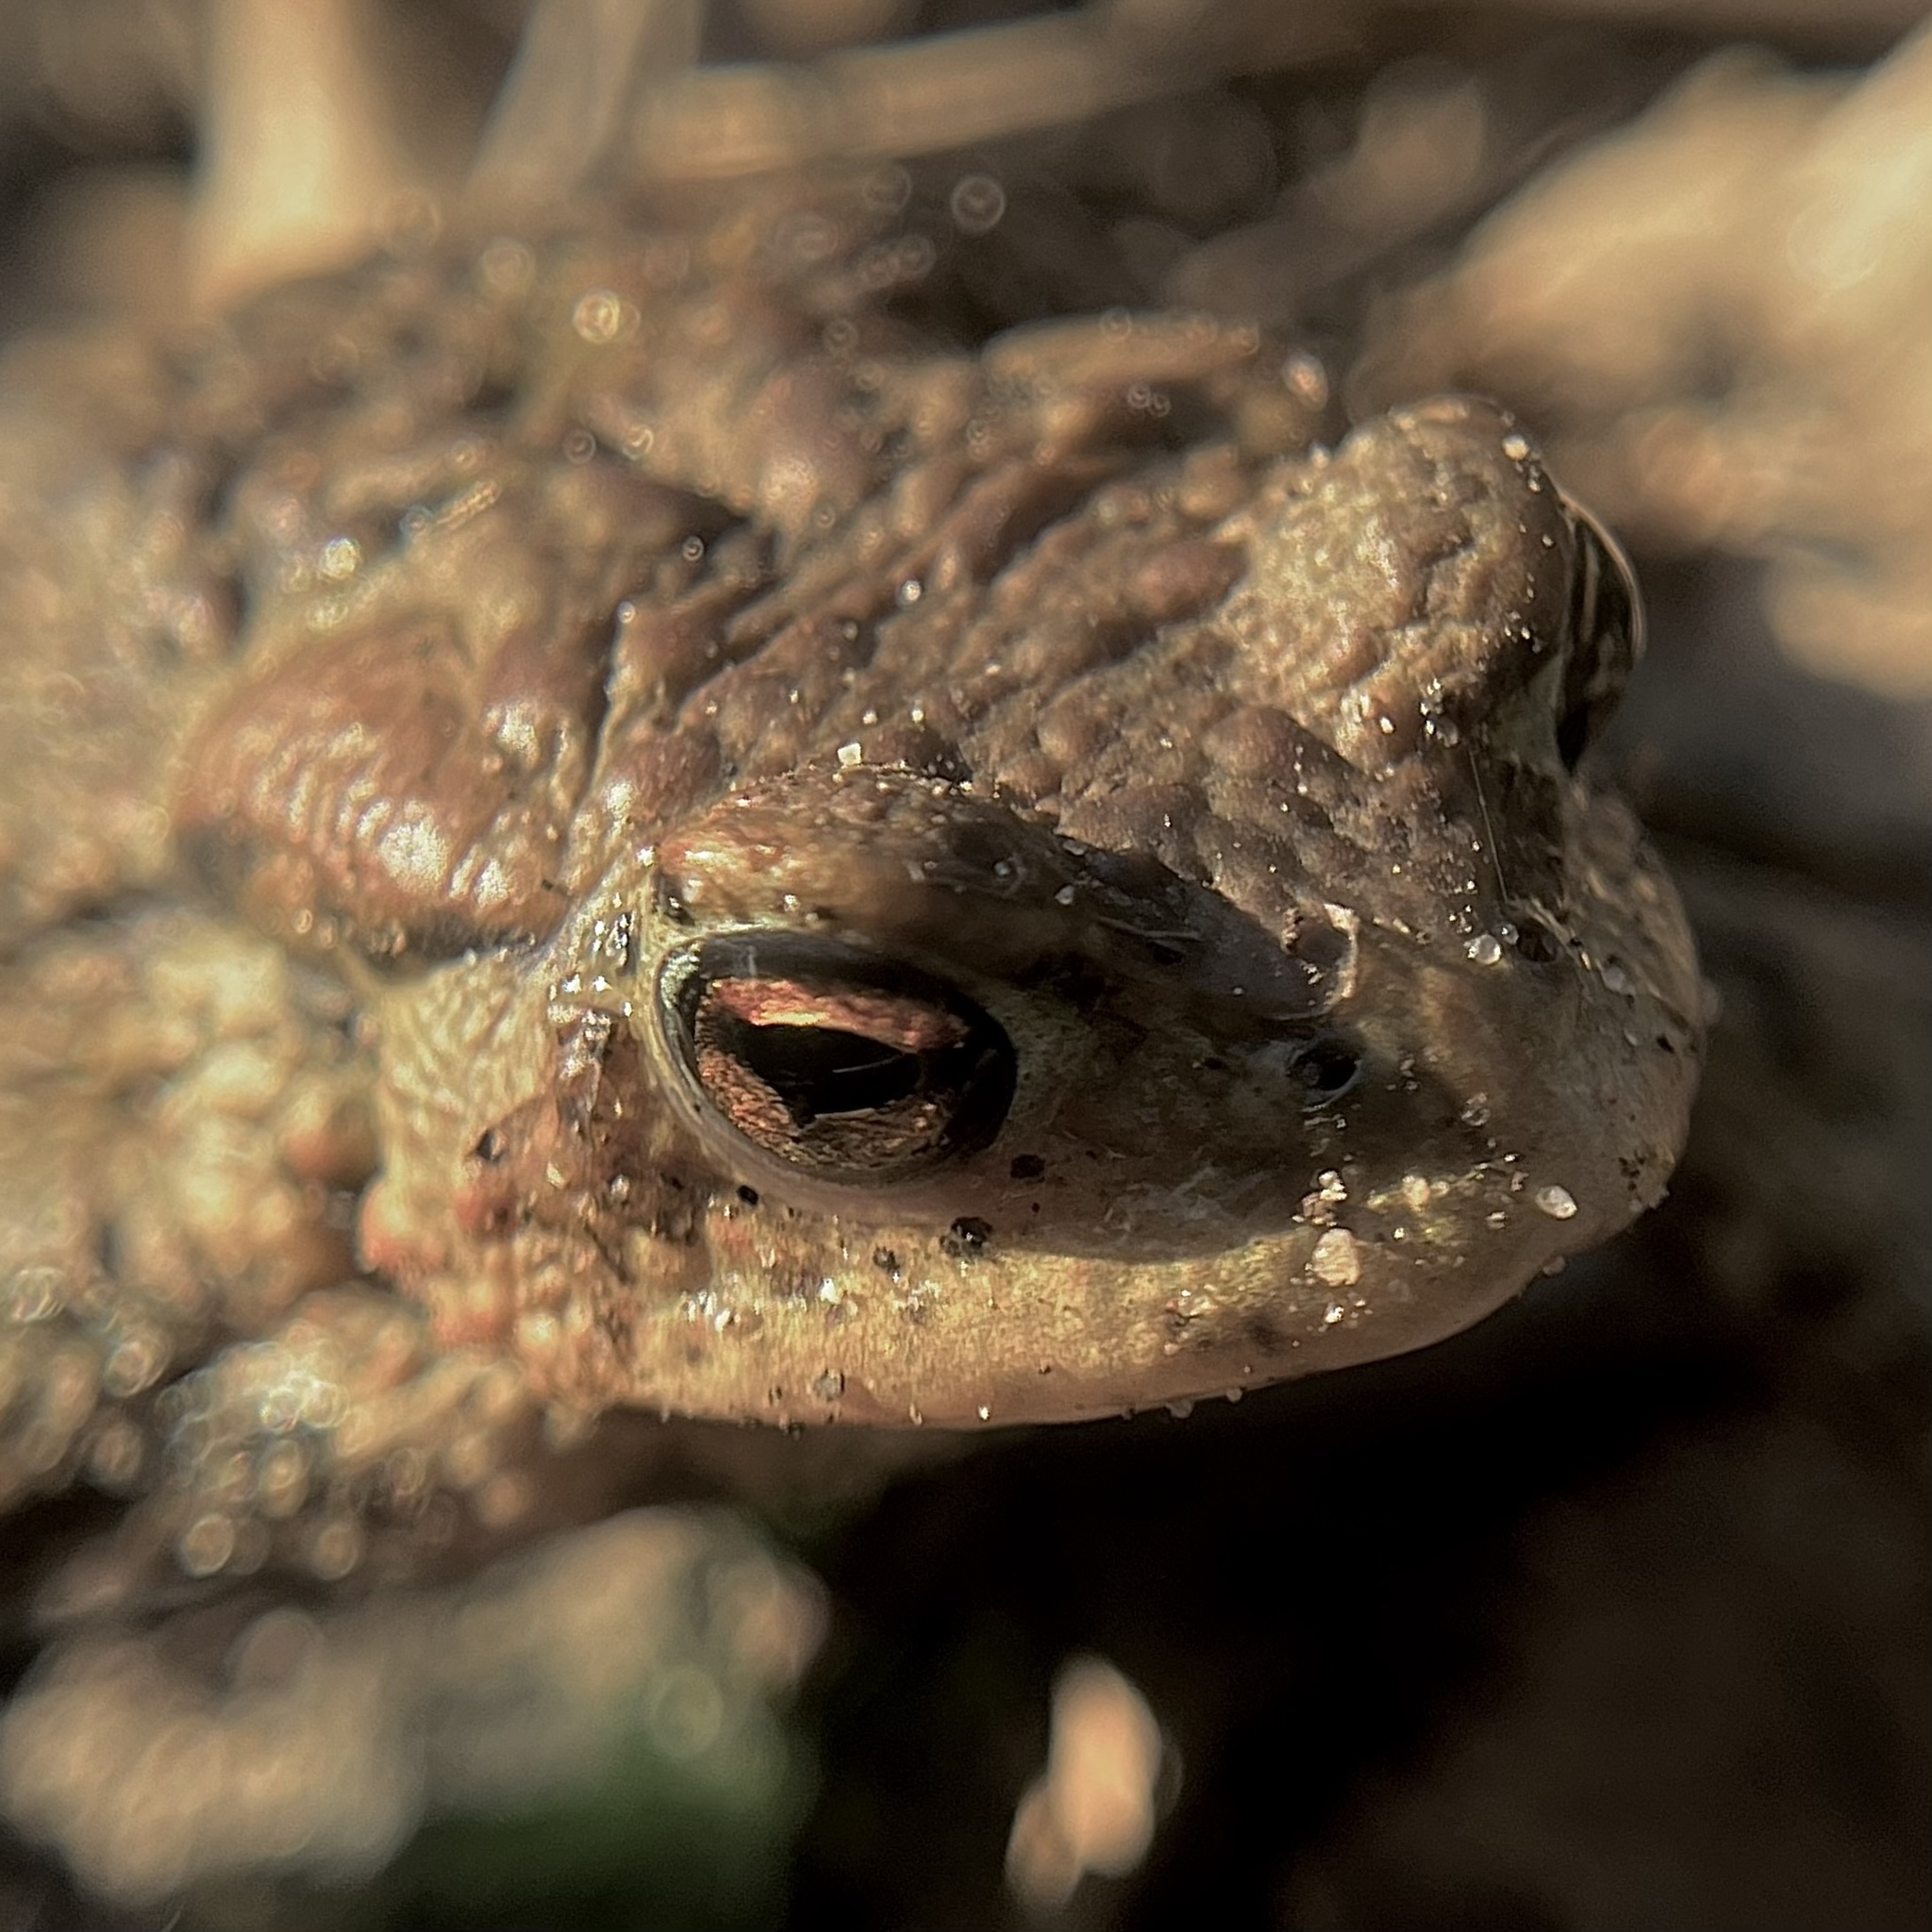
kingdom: Animalia
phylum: Chordata
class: Amphibia
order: Anura
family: Bufonidae
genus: Bufo
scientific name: Bufo bufo
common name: Common toad
